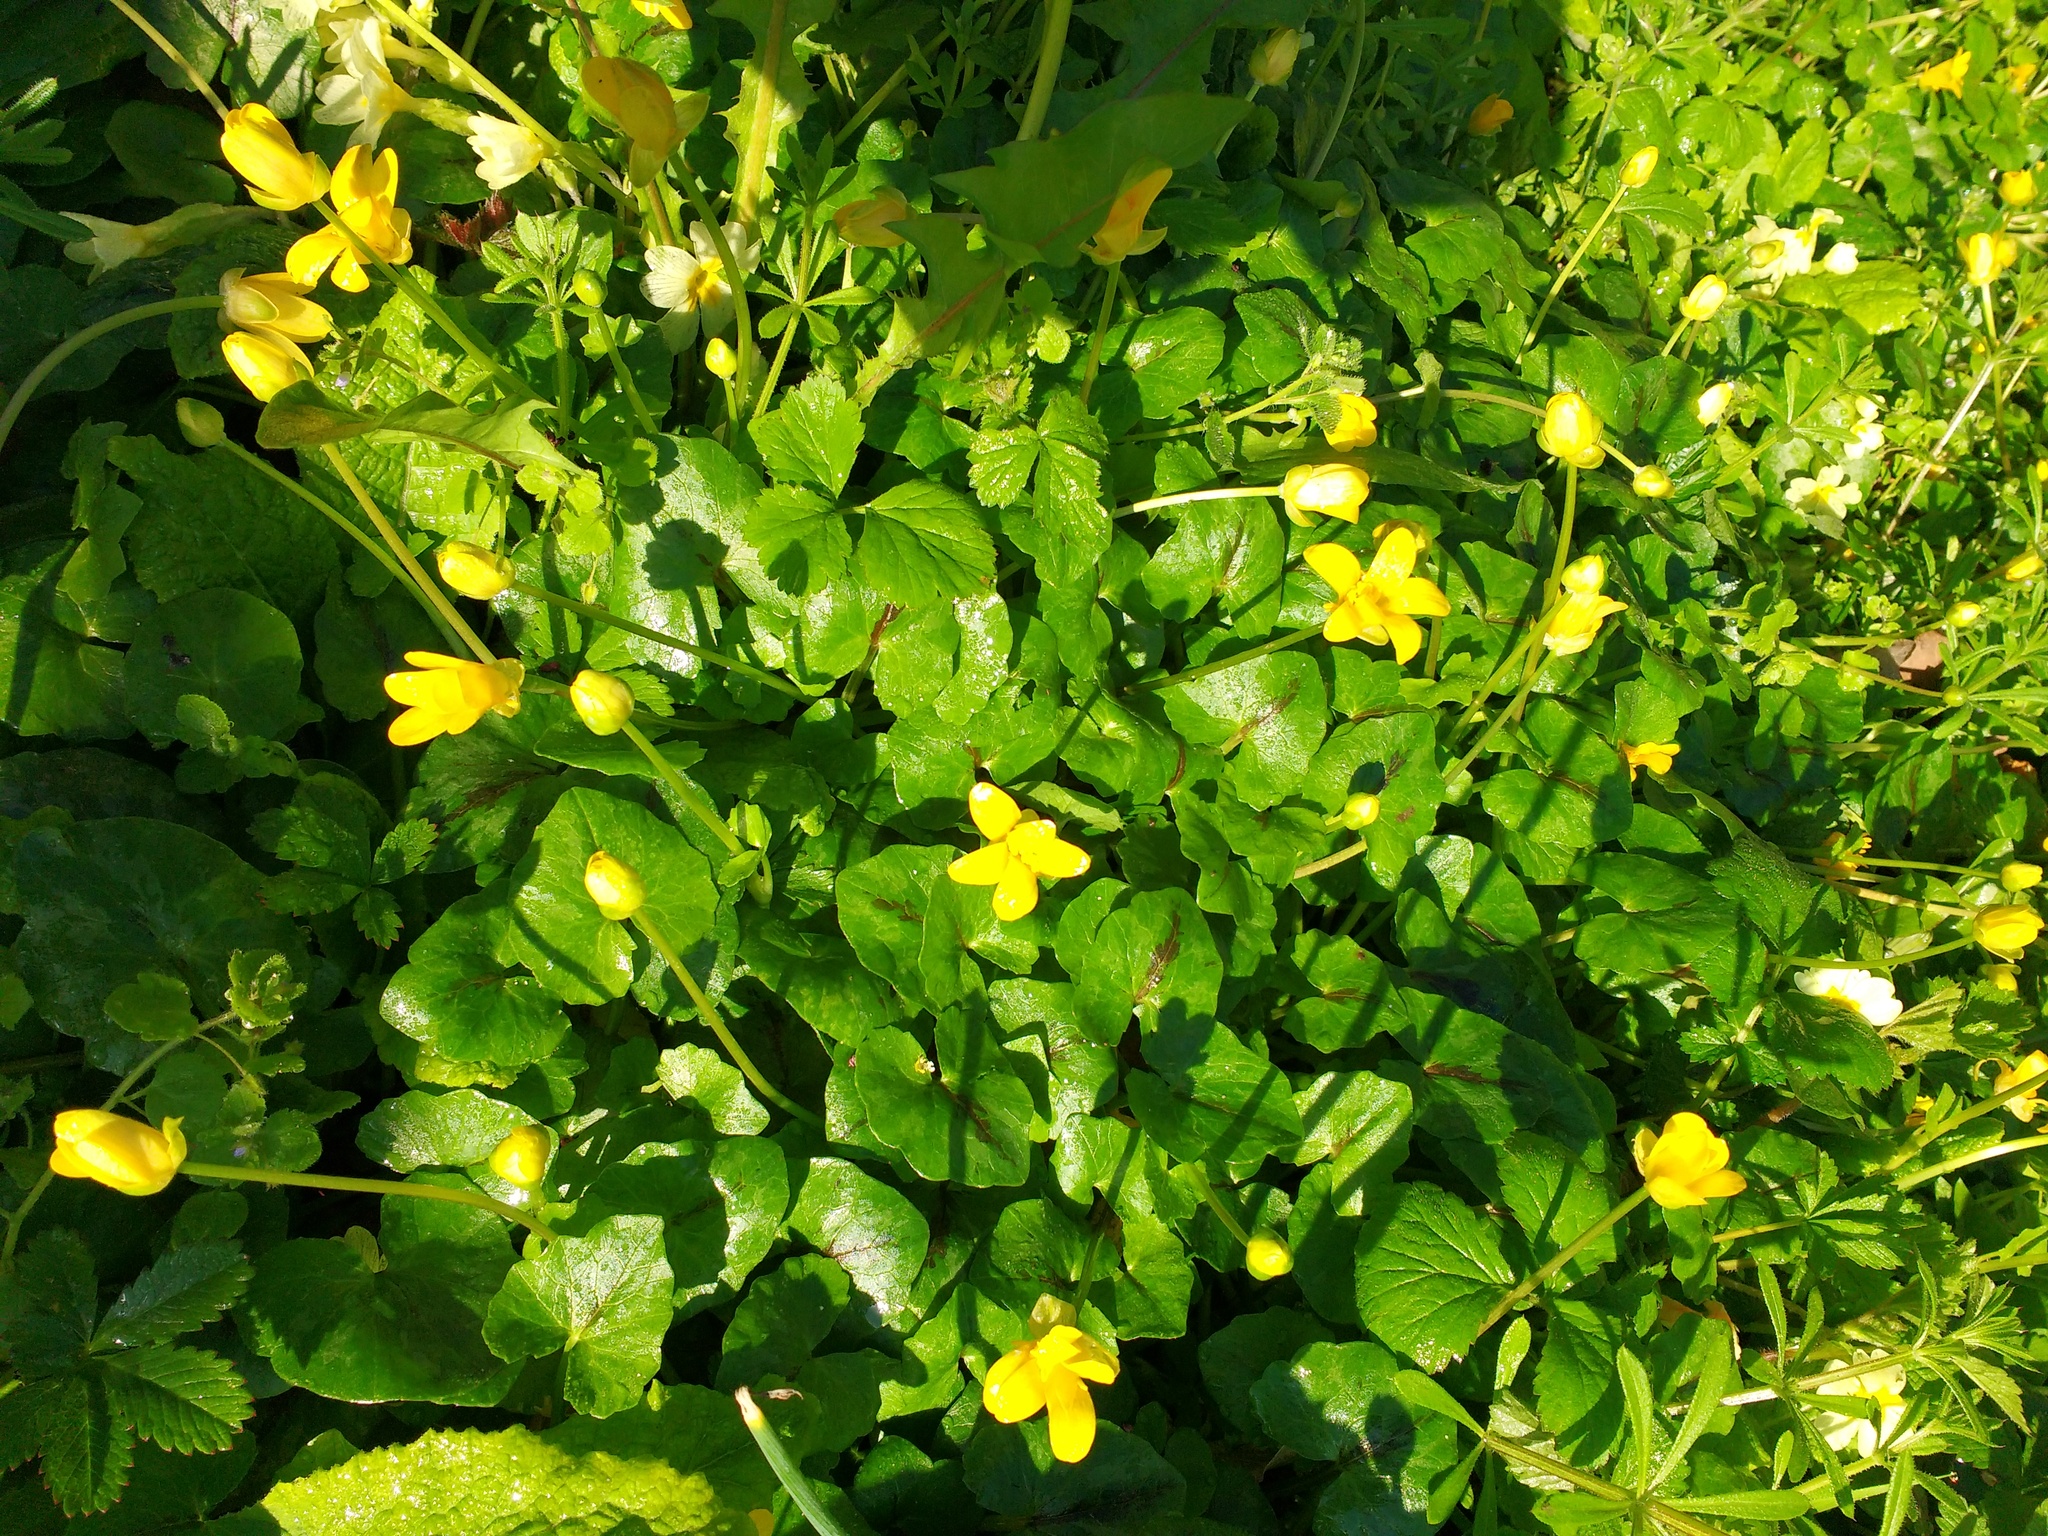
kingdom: Plantae
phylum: Tracheophyta
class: Magnoliopsida
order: Ranunculales
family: Ranunculaceae
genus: Ficaria
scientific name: Ficaria verna
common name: Lesser celandine
